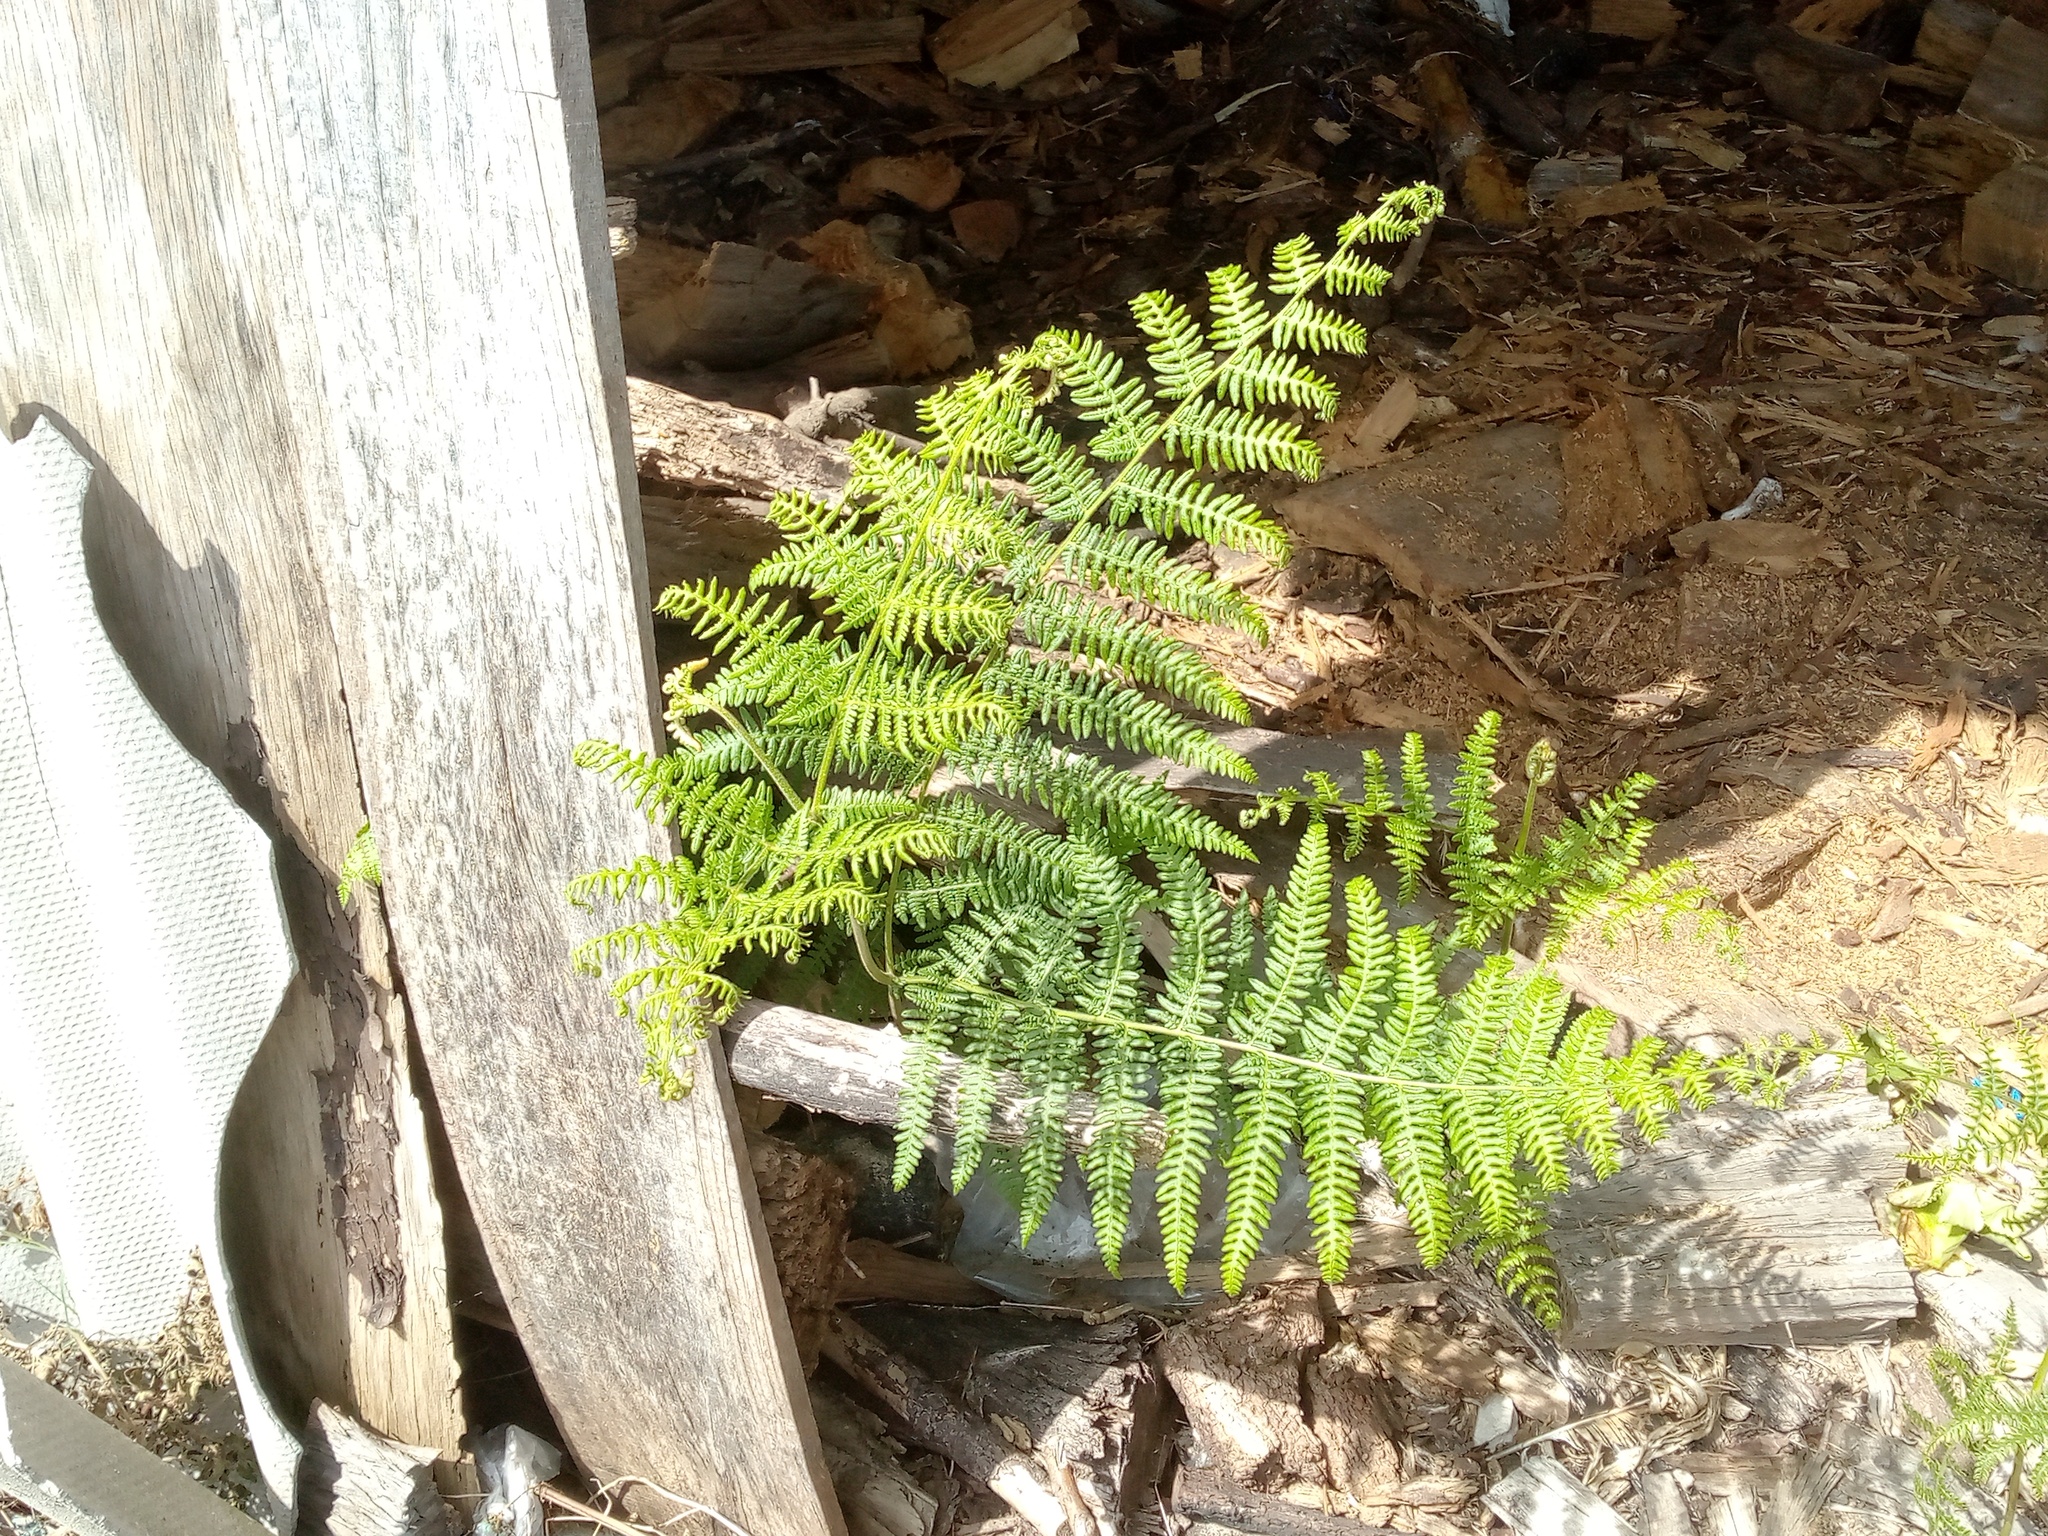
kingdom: Plantae
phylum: Tracheophyta
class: Polypodiopsida
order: Polypodiales
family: Dennstaedtiaceae
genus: Pteridium
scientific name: Pteridium aquilinum
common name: Bracken
